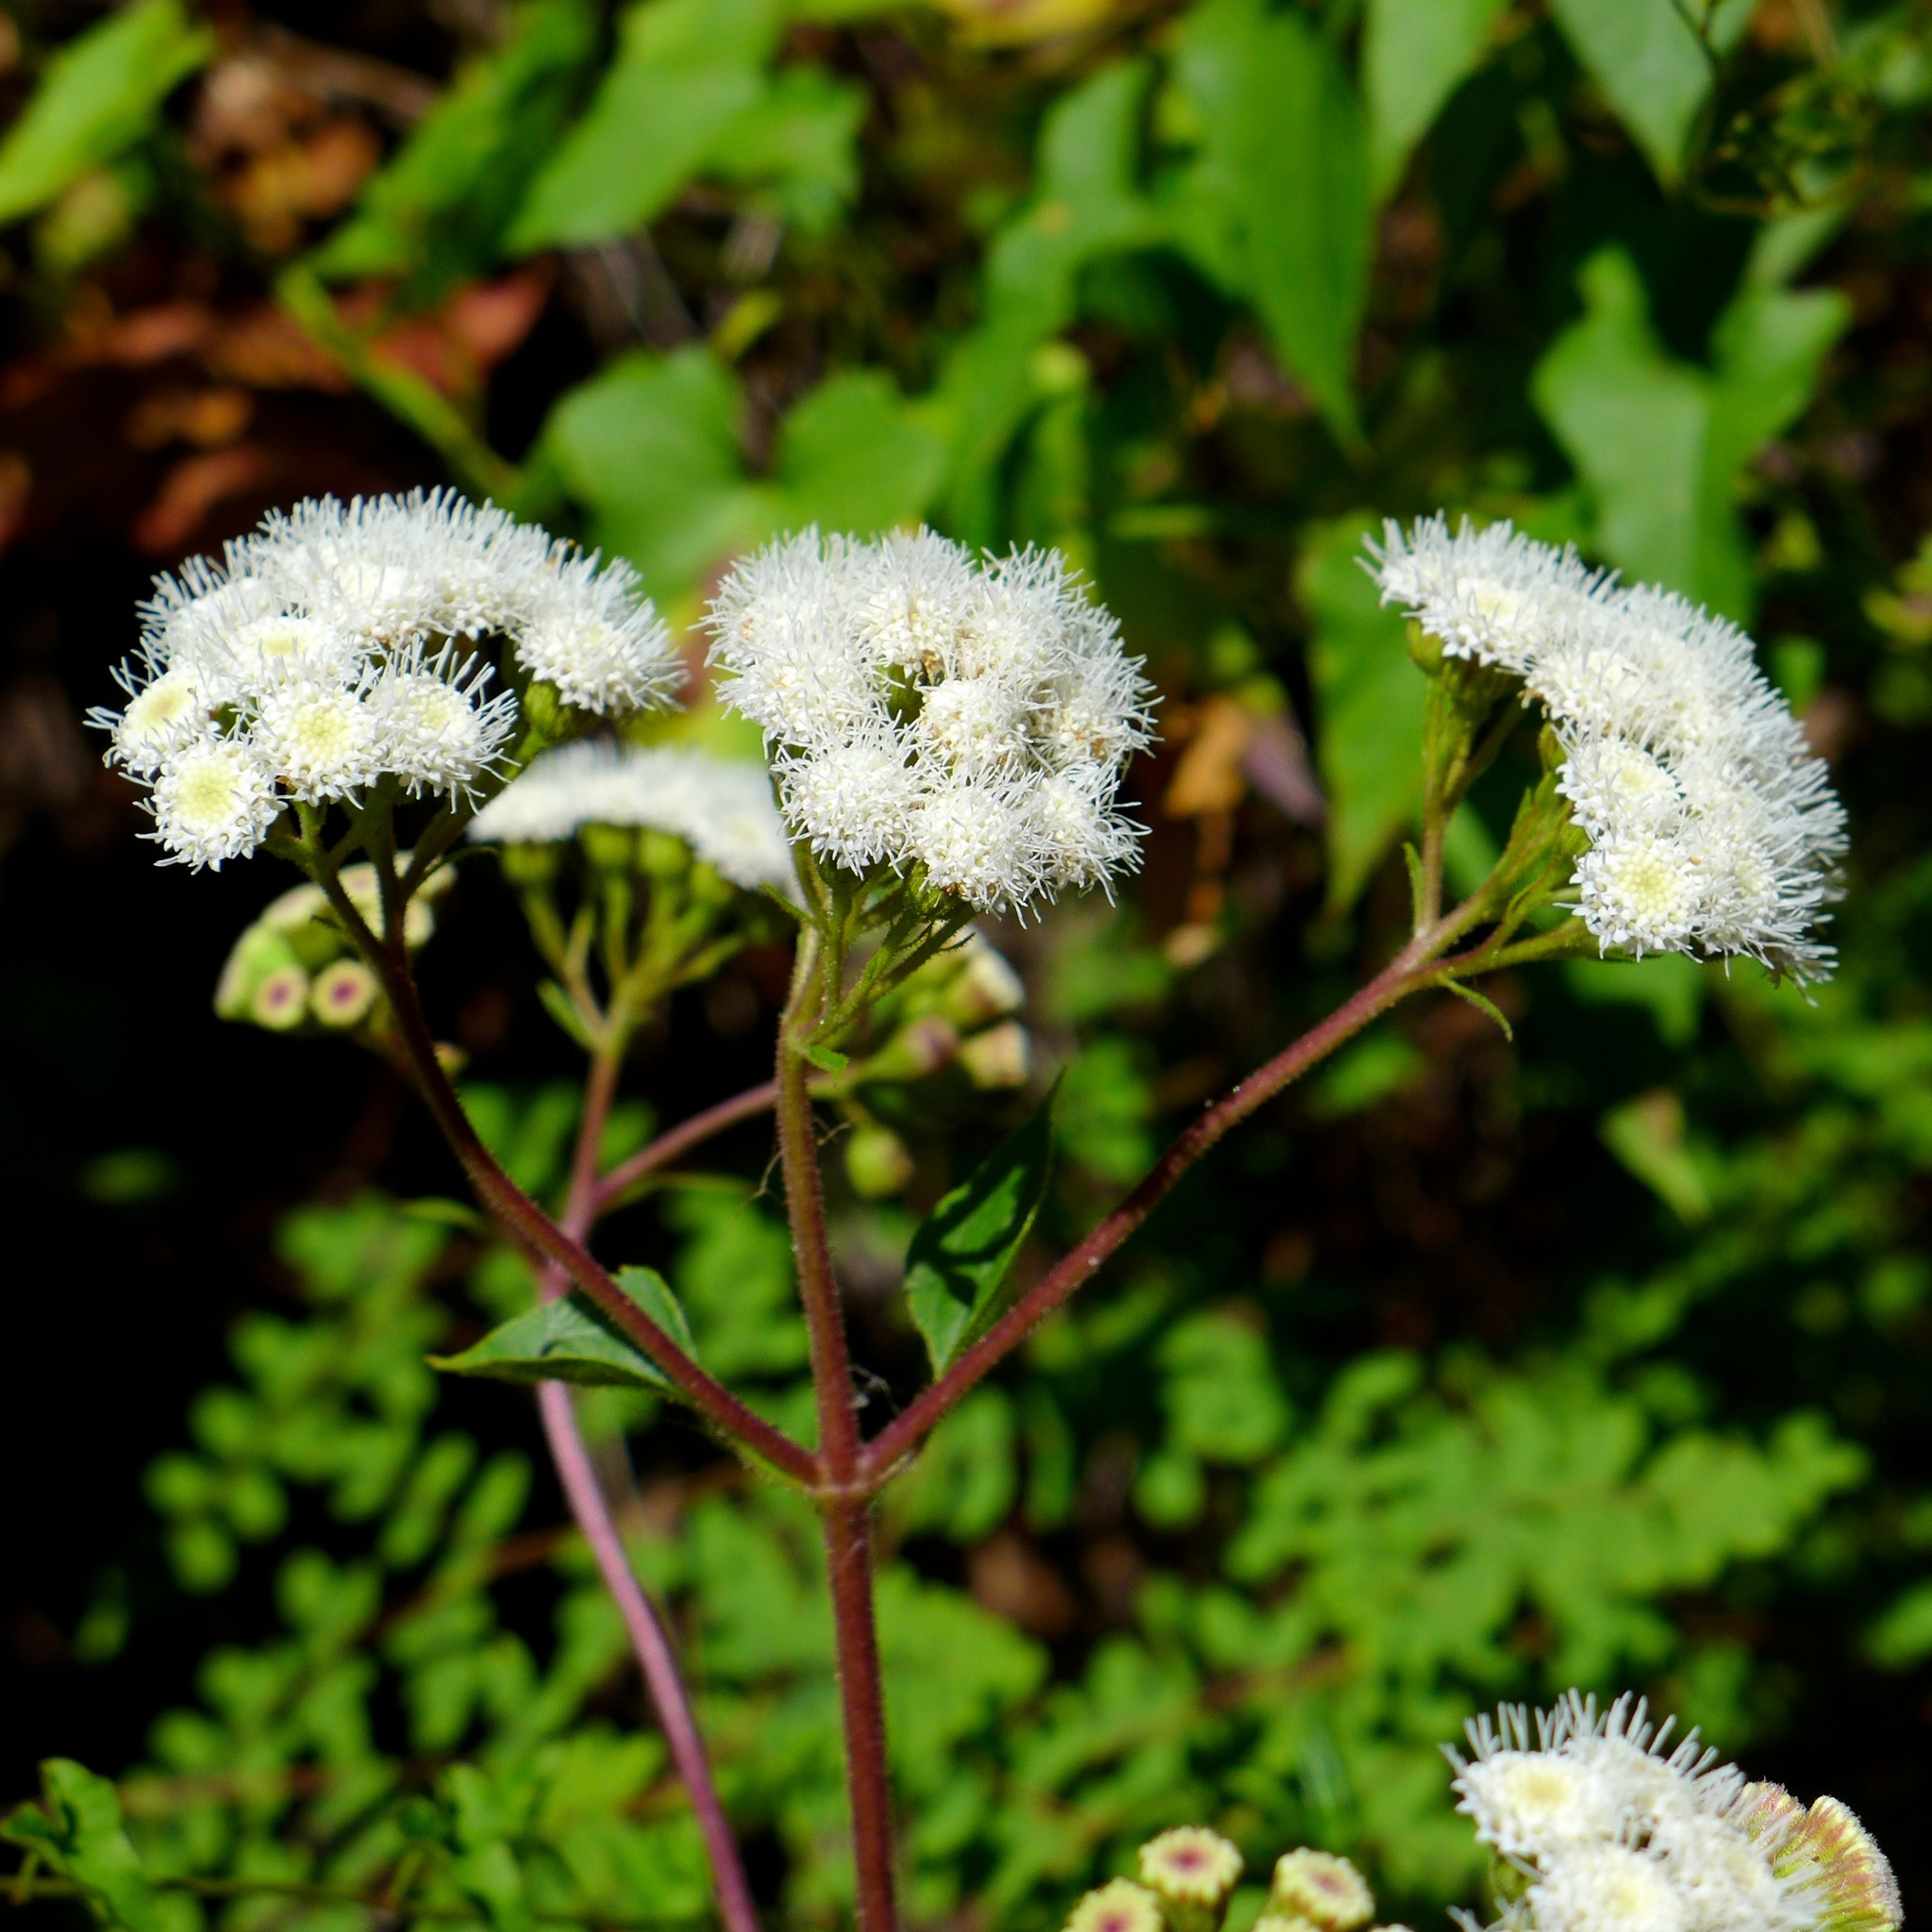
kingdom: Plantae
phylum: Tracheophyta
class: Magnoliopsida
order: Asterales
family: Asteraceae
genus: Ageratina
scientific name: Ageratina adenophora
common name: Sticky snakeroot
